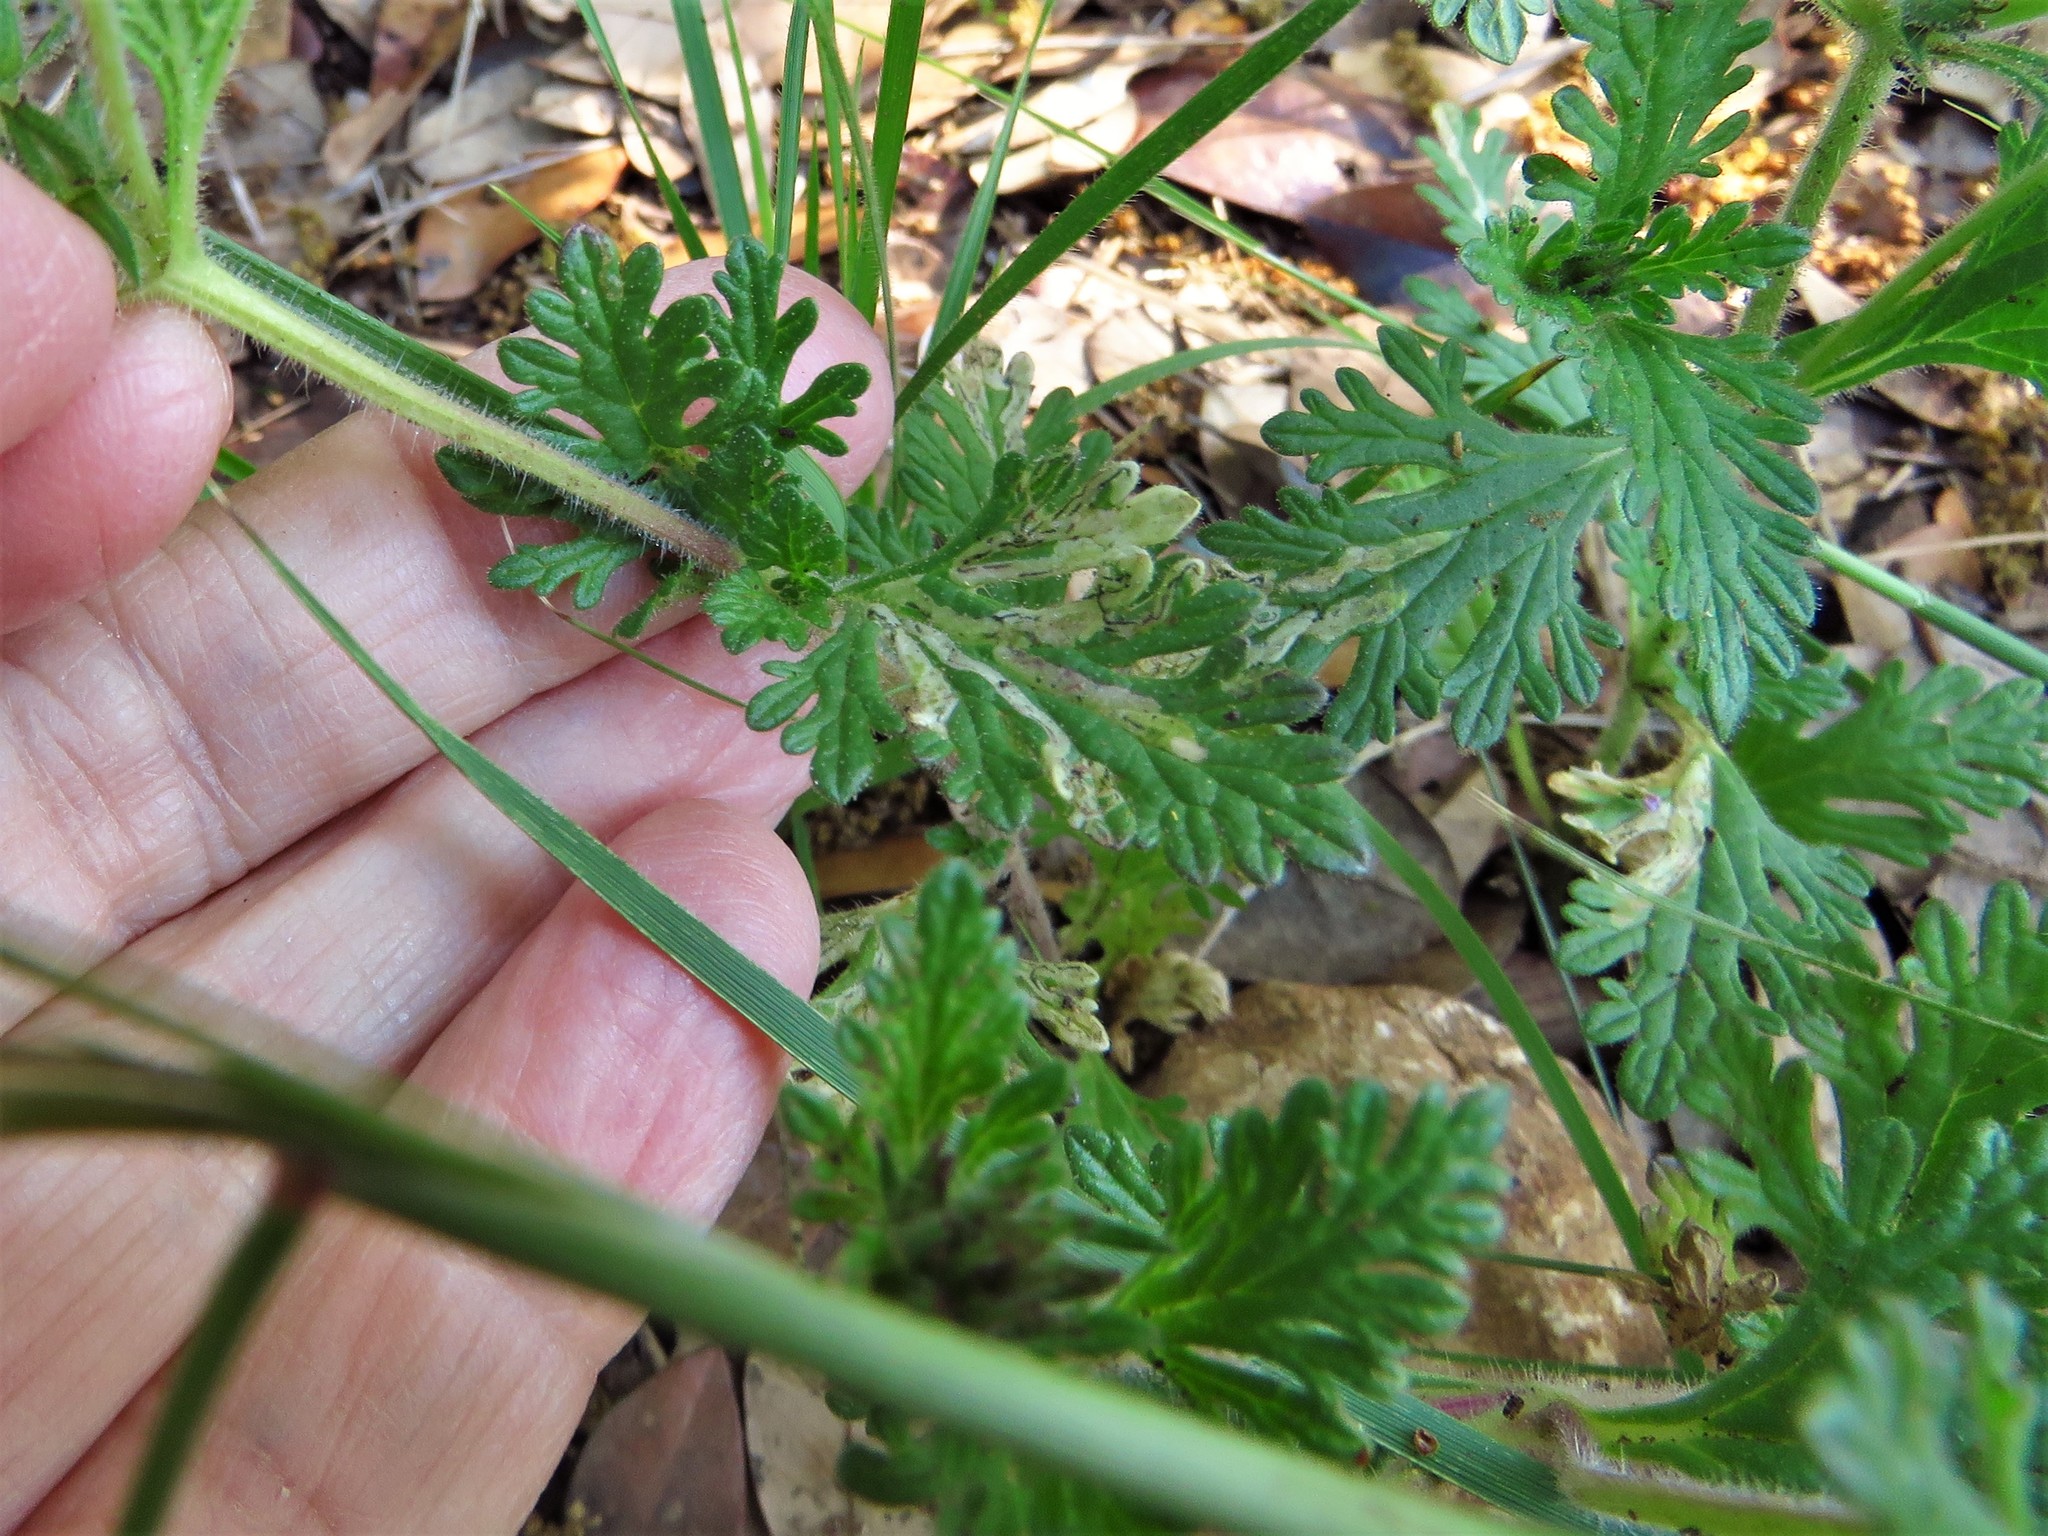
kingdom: Plantae
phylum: Tracheophyta
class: Magnoliopsida
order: Lamiales
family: Verbenaceae
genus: Verbena
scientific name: Verbena pumila
